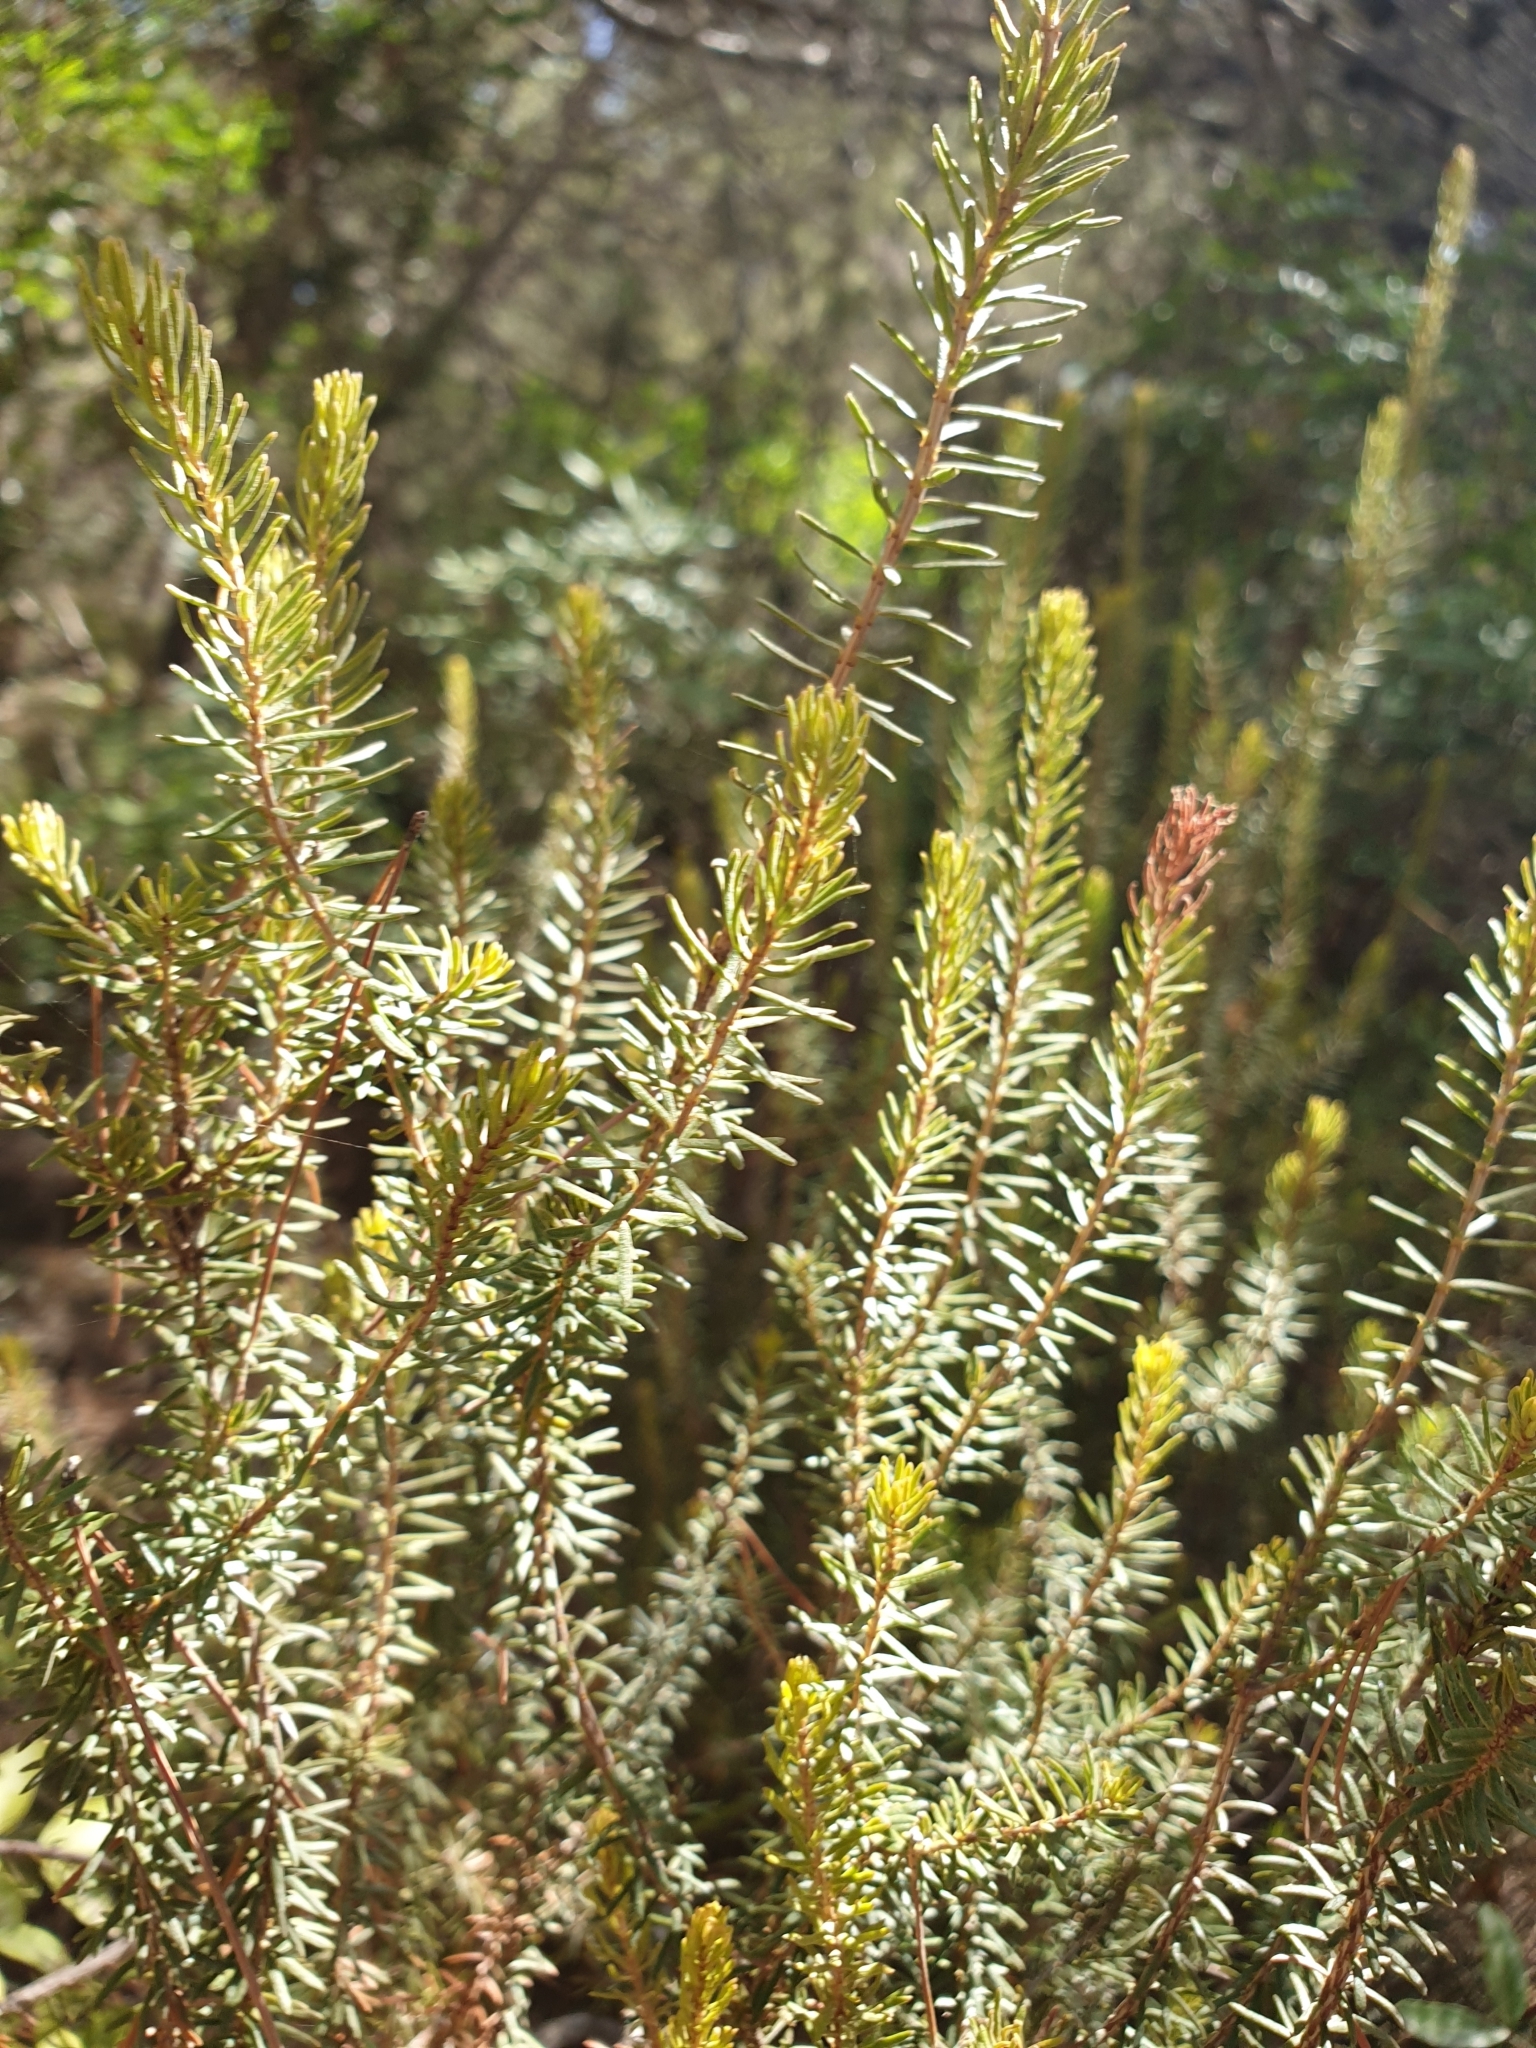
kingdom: Plantae
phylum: Tracheophyta
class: Magnoliopsida
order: Lamiales
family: Lamiaceae
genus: Salvia
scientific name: Salvia rosmarinus
